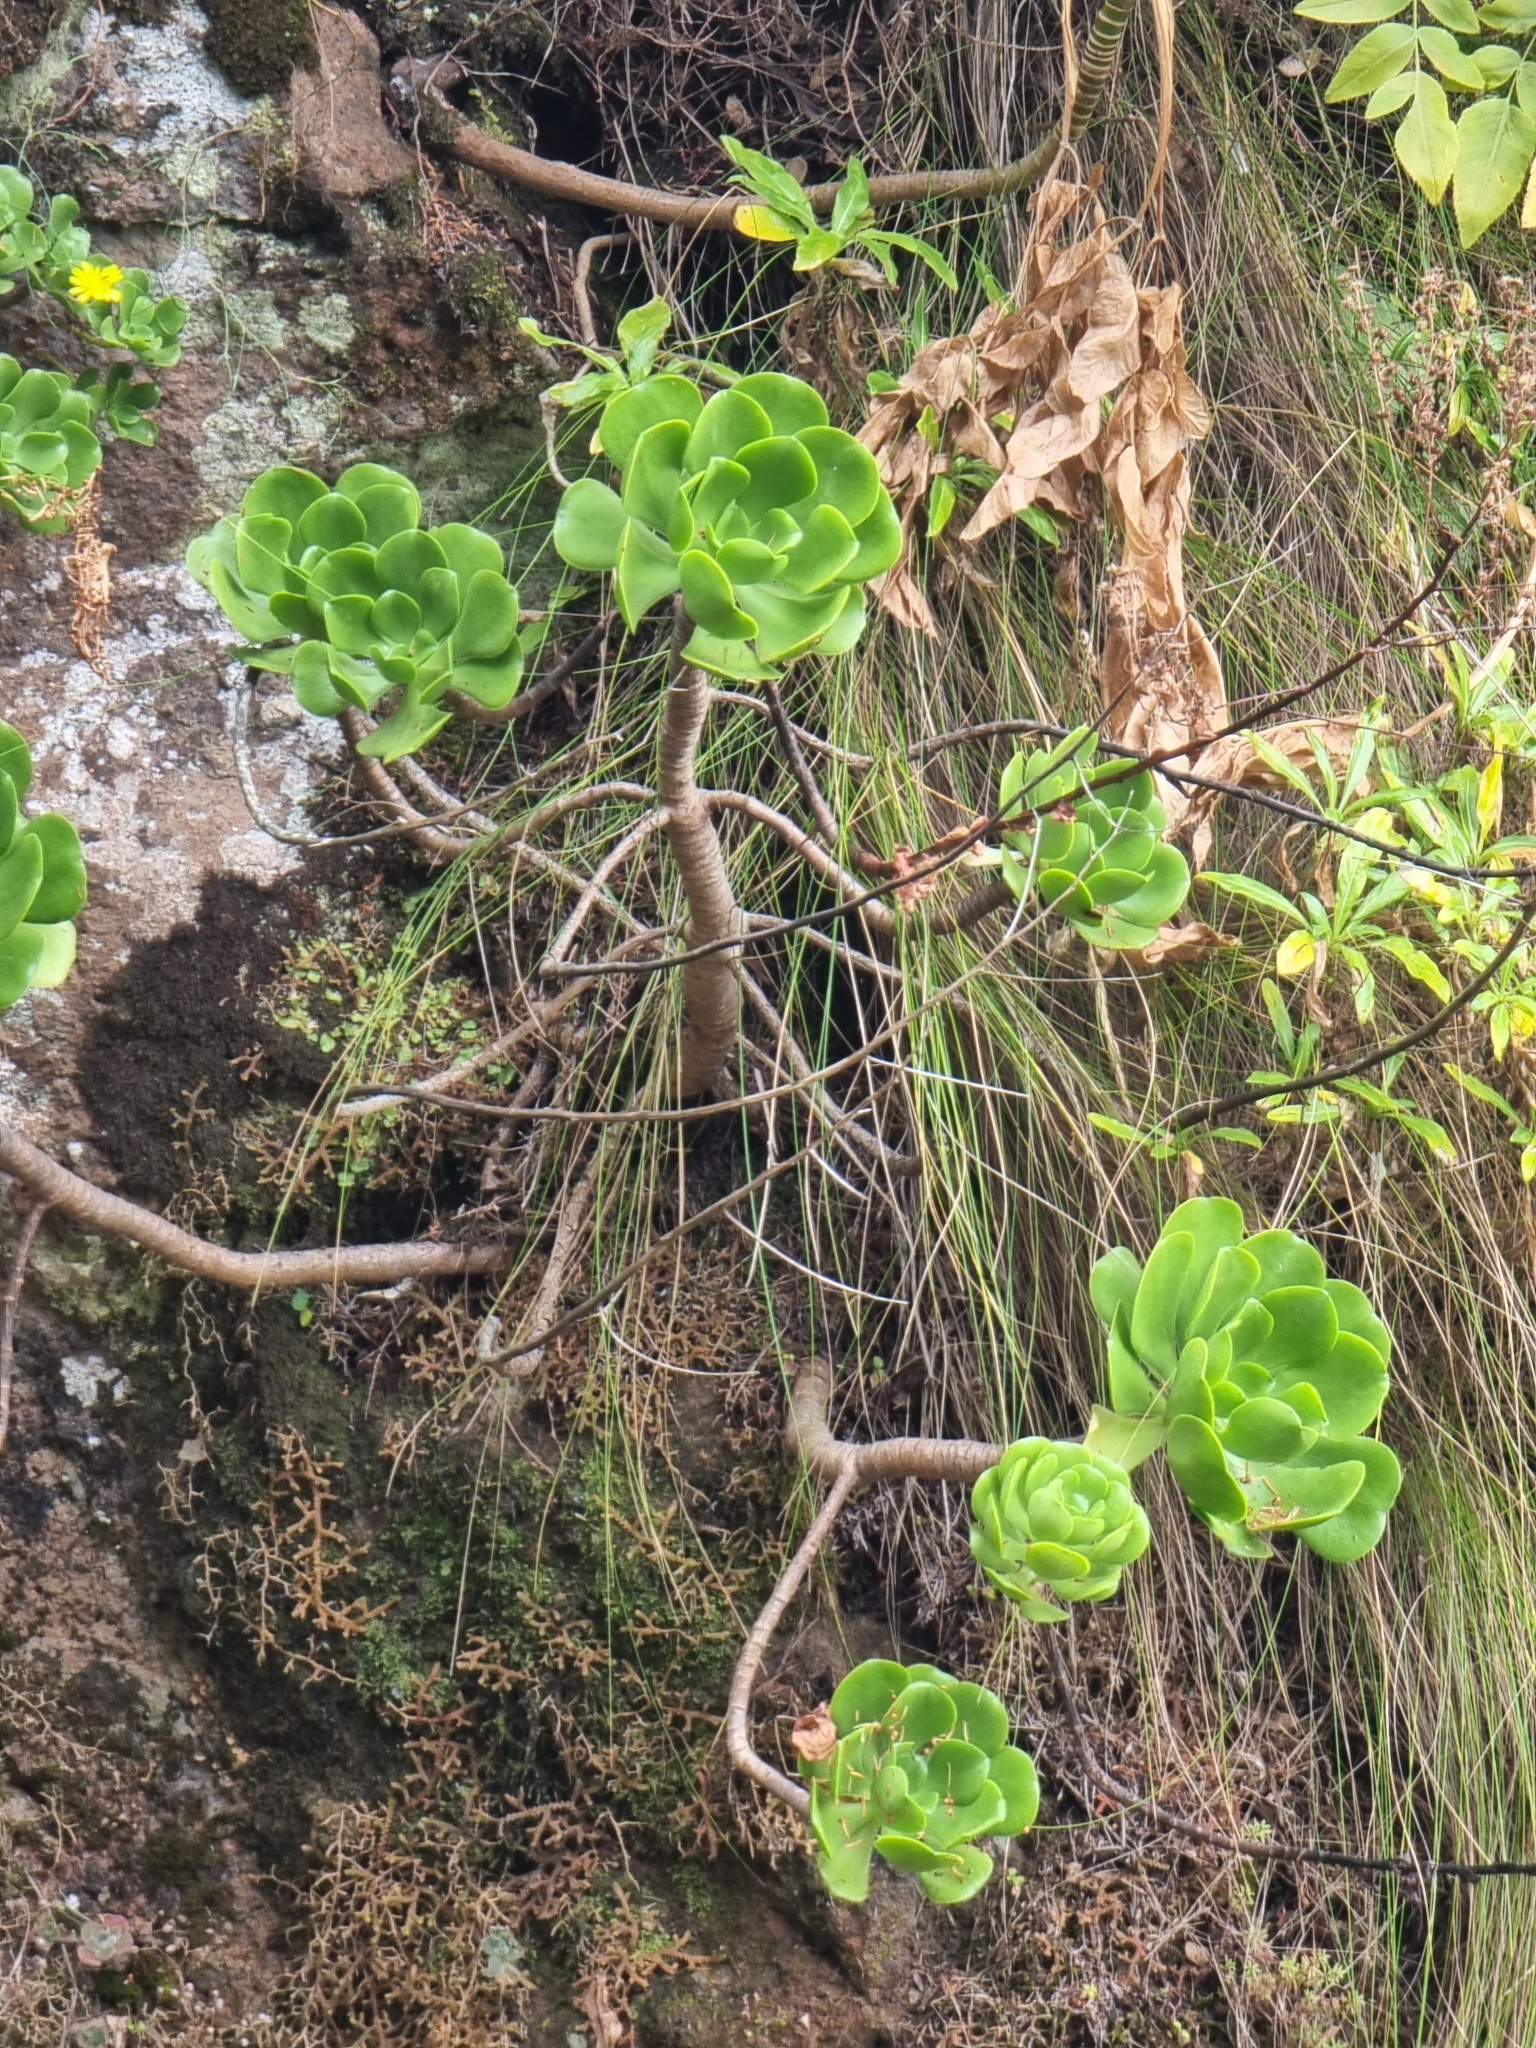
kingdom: Plantae
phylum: Tracheophyta
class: Magnoliopsida
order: Saxifragales
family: Crassulaceae
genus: Aeonium
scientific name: Aeonium glutinosum
